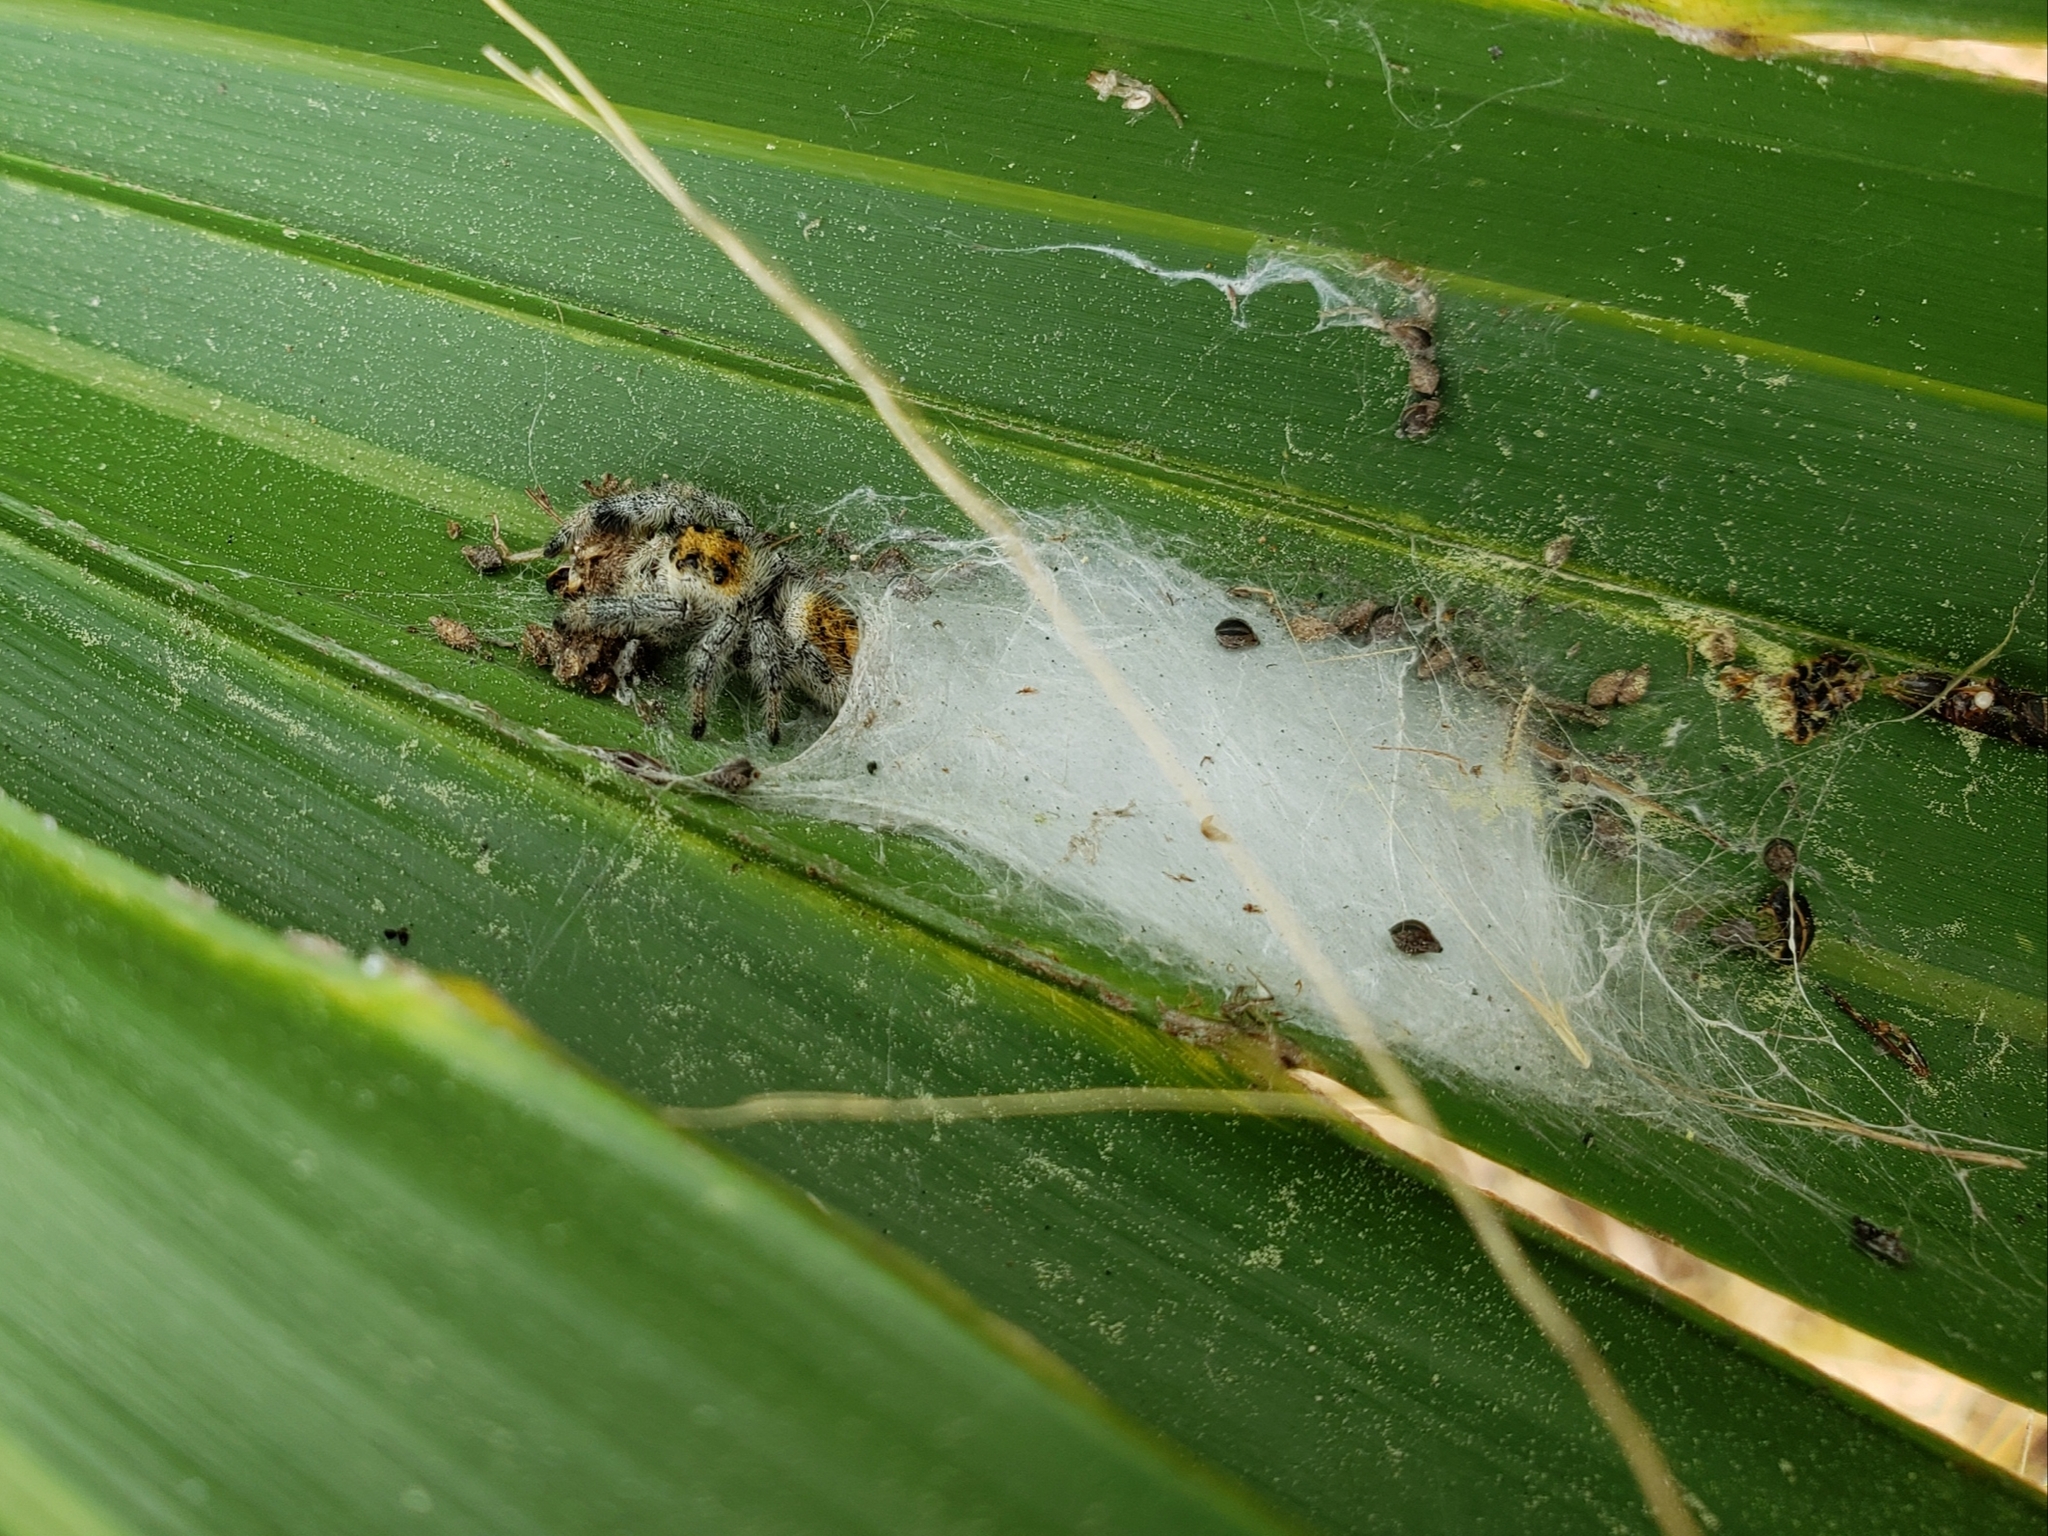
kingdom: Animalia
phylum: Arthropoda
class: Arachnida
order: Araneae
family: Salticidae
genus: Phidippus
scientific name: Phidippus regius
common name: Regal jumper
